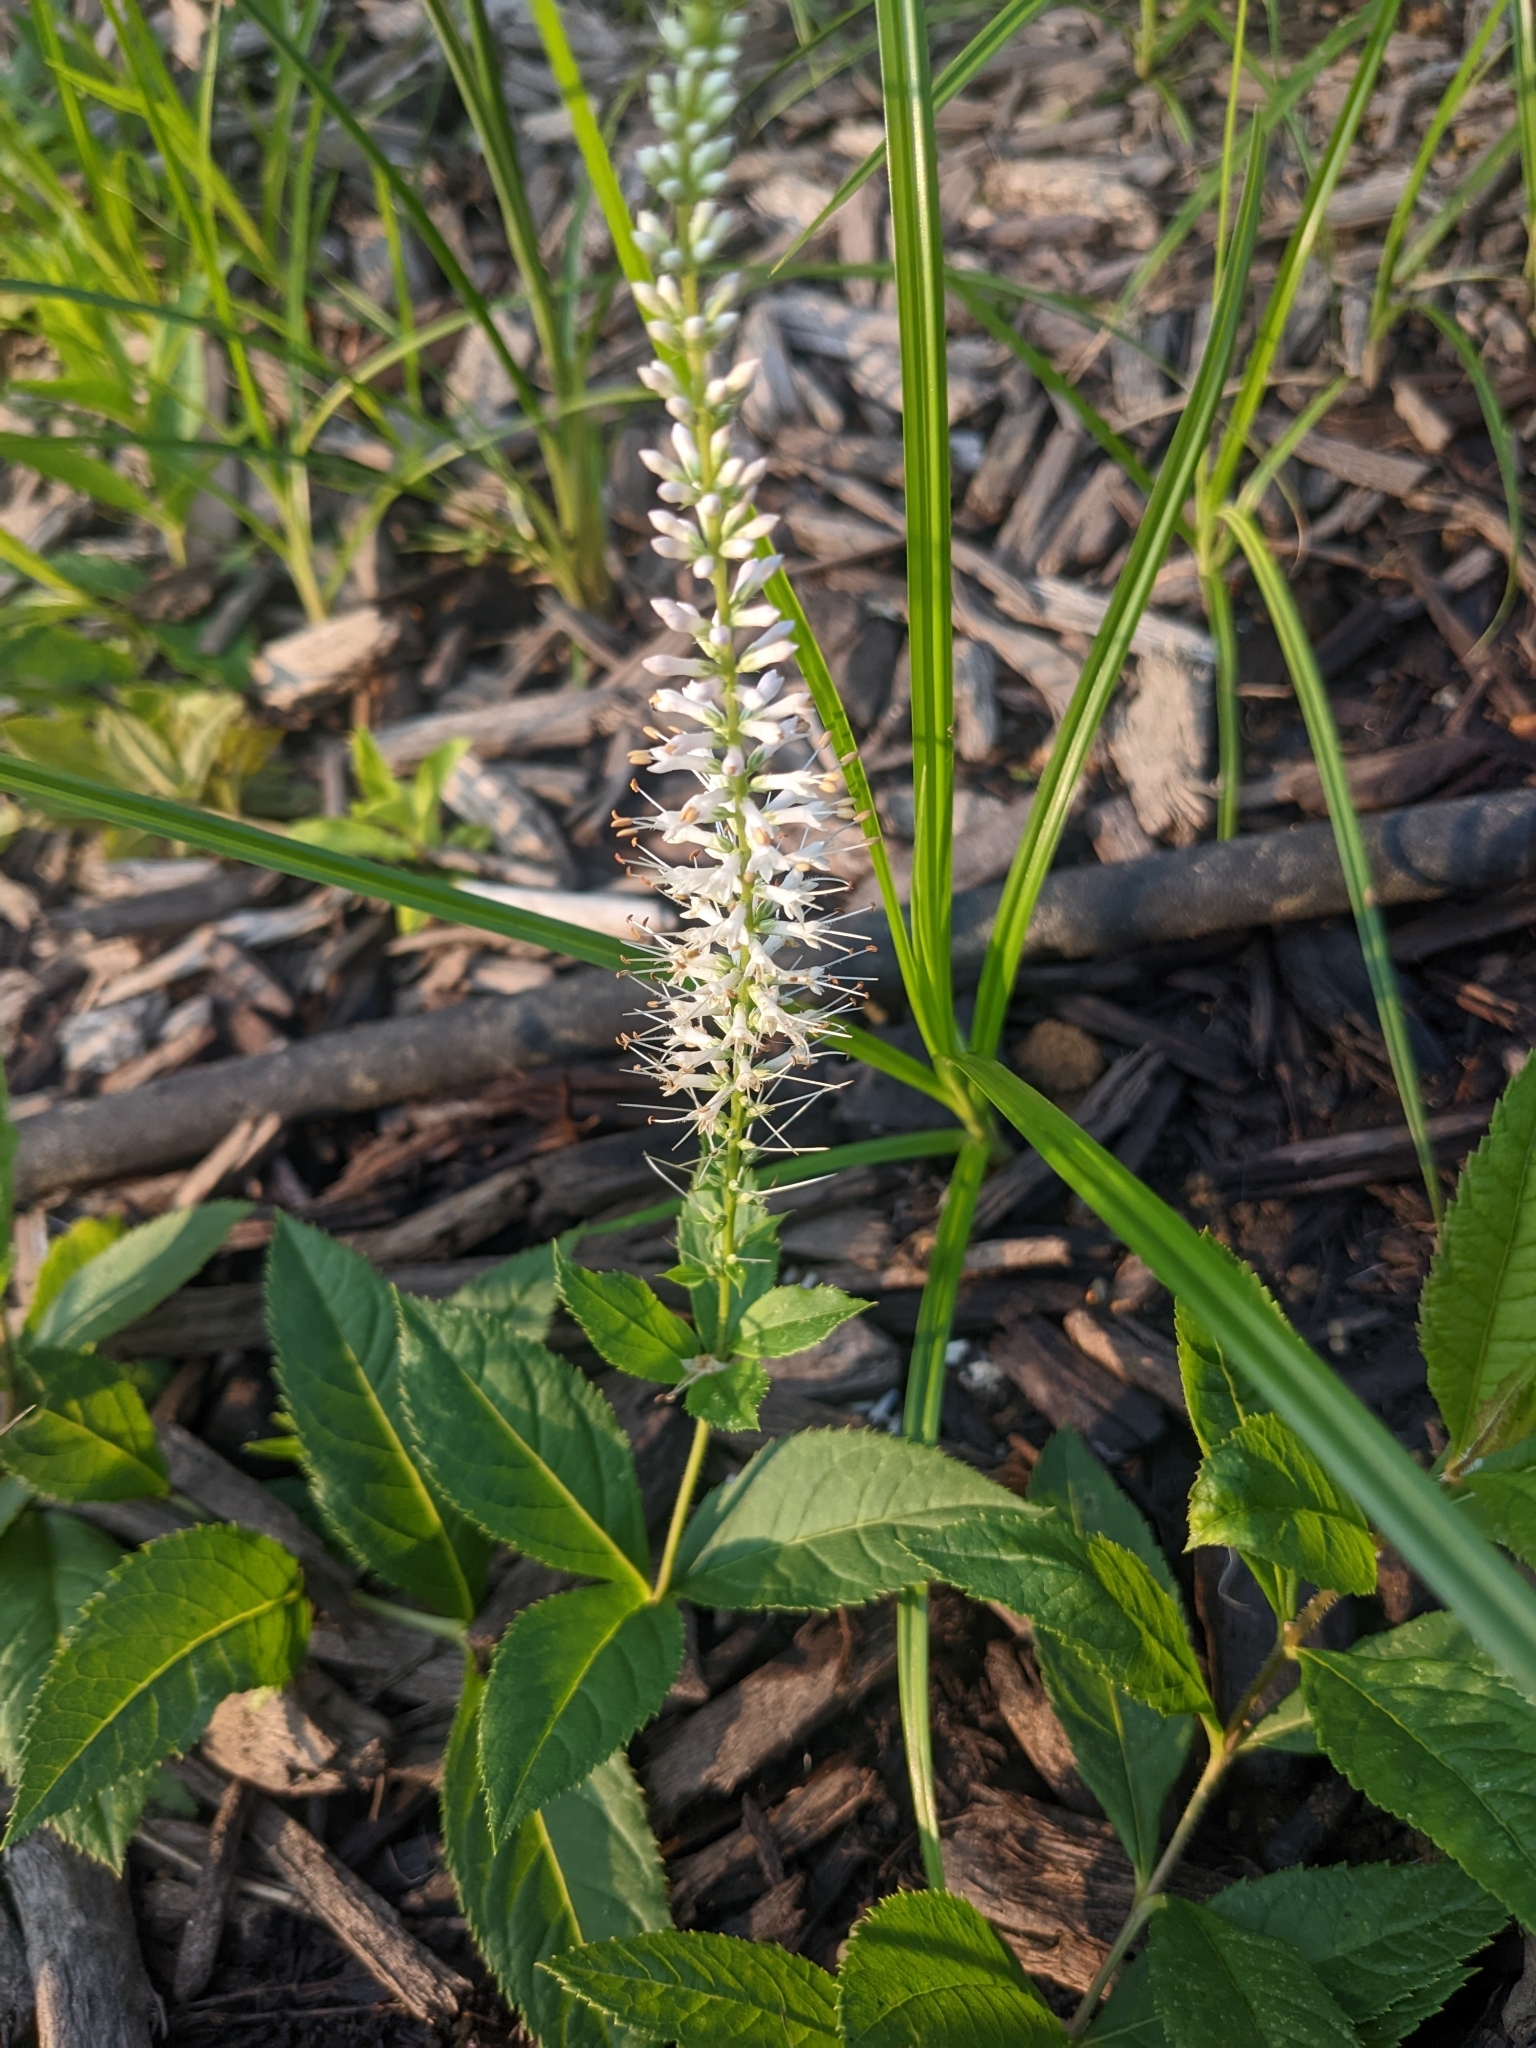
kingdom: Plantae
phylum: Tracheophyta
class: Magnoliopsida
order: Lamiales
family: Plantaginaceae
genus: Veronicastrum
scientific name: Veronicastrum virginicum
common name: Blackroot
